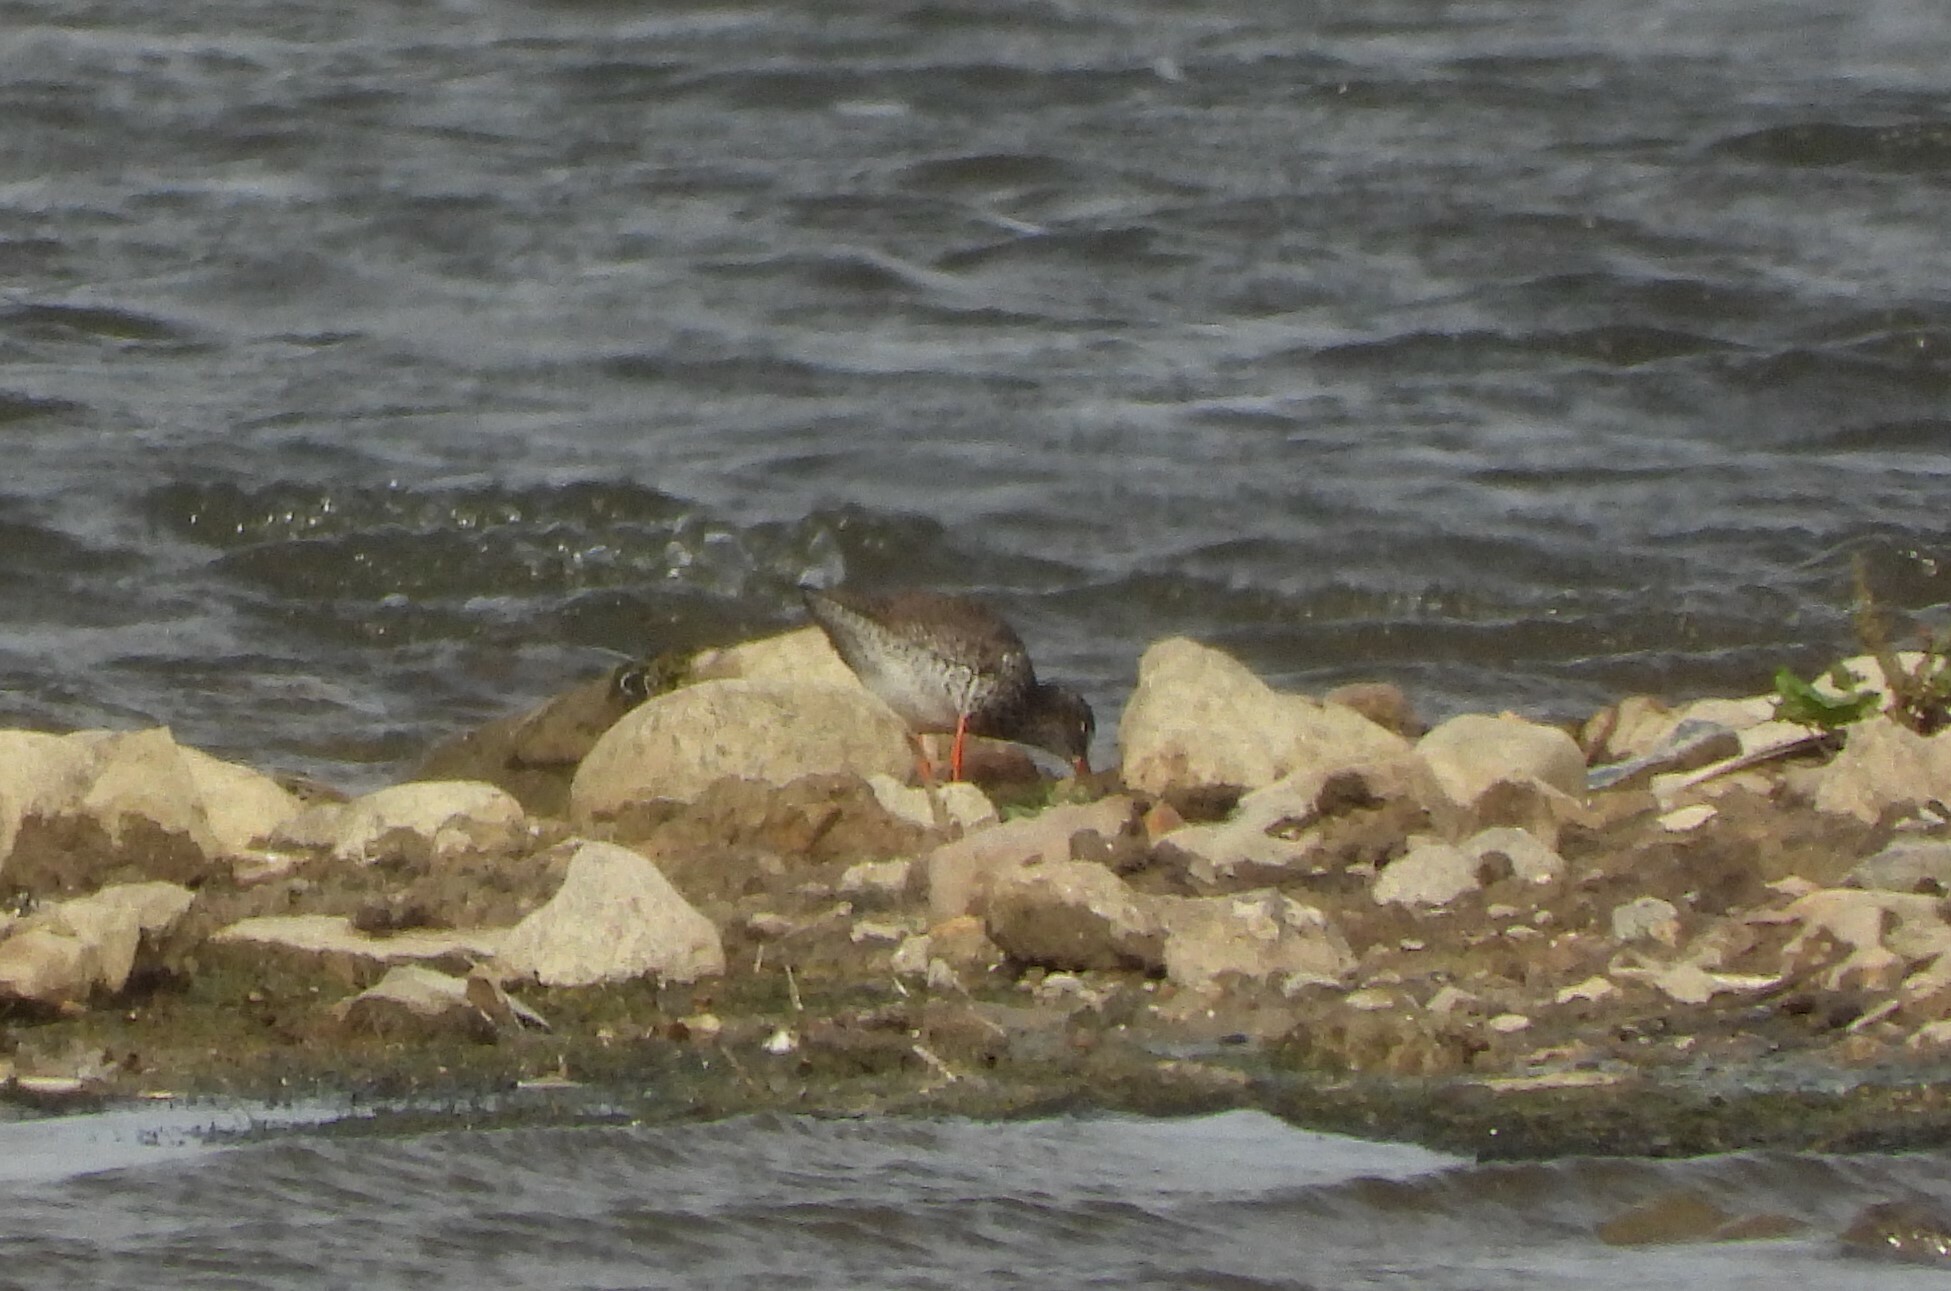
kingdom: Animalia
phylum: Chordata
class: Aves
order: Charadriiformes
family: Scolopacidae
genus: Tringa
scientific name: Tringa totanus
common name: Common redshank
